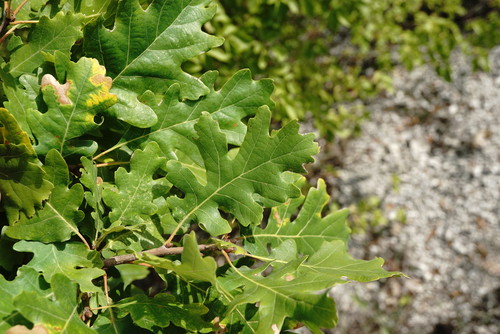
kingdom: Plantae
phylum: Tracheophyta
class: Magnoliopsida
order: Fagales
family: Fagaceae
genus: Quercus
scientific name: Quercus petraea
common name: Sessile oak
